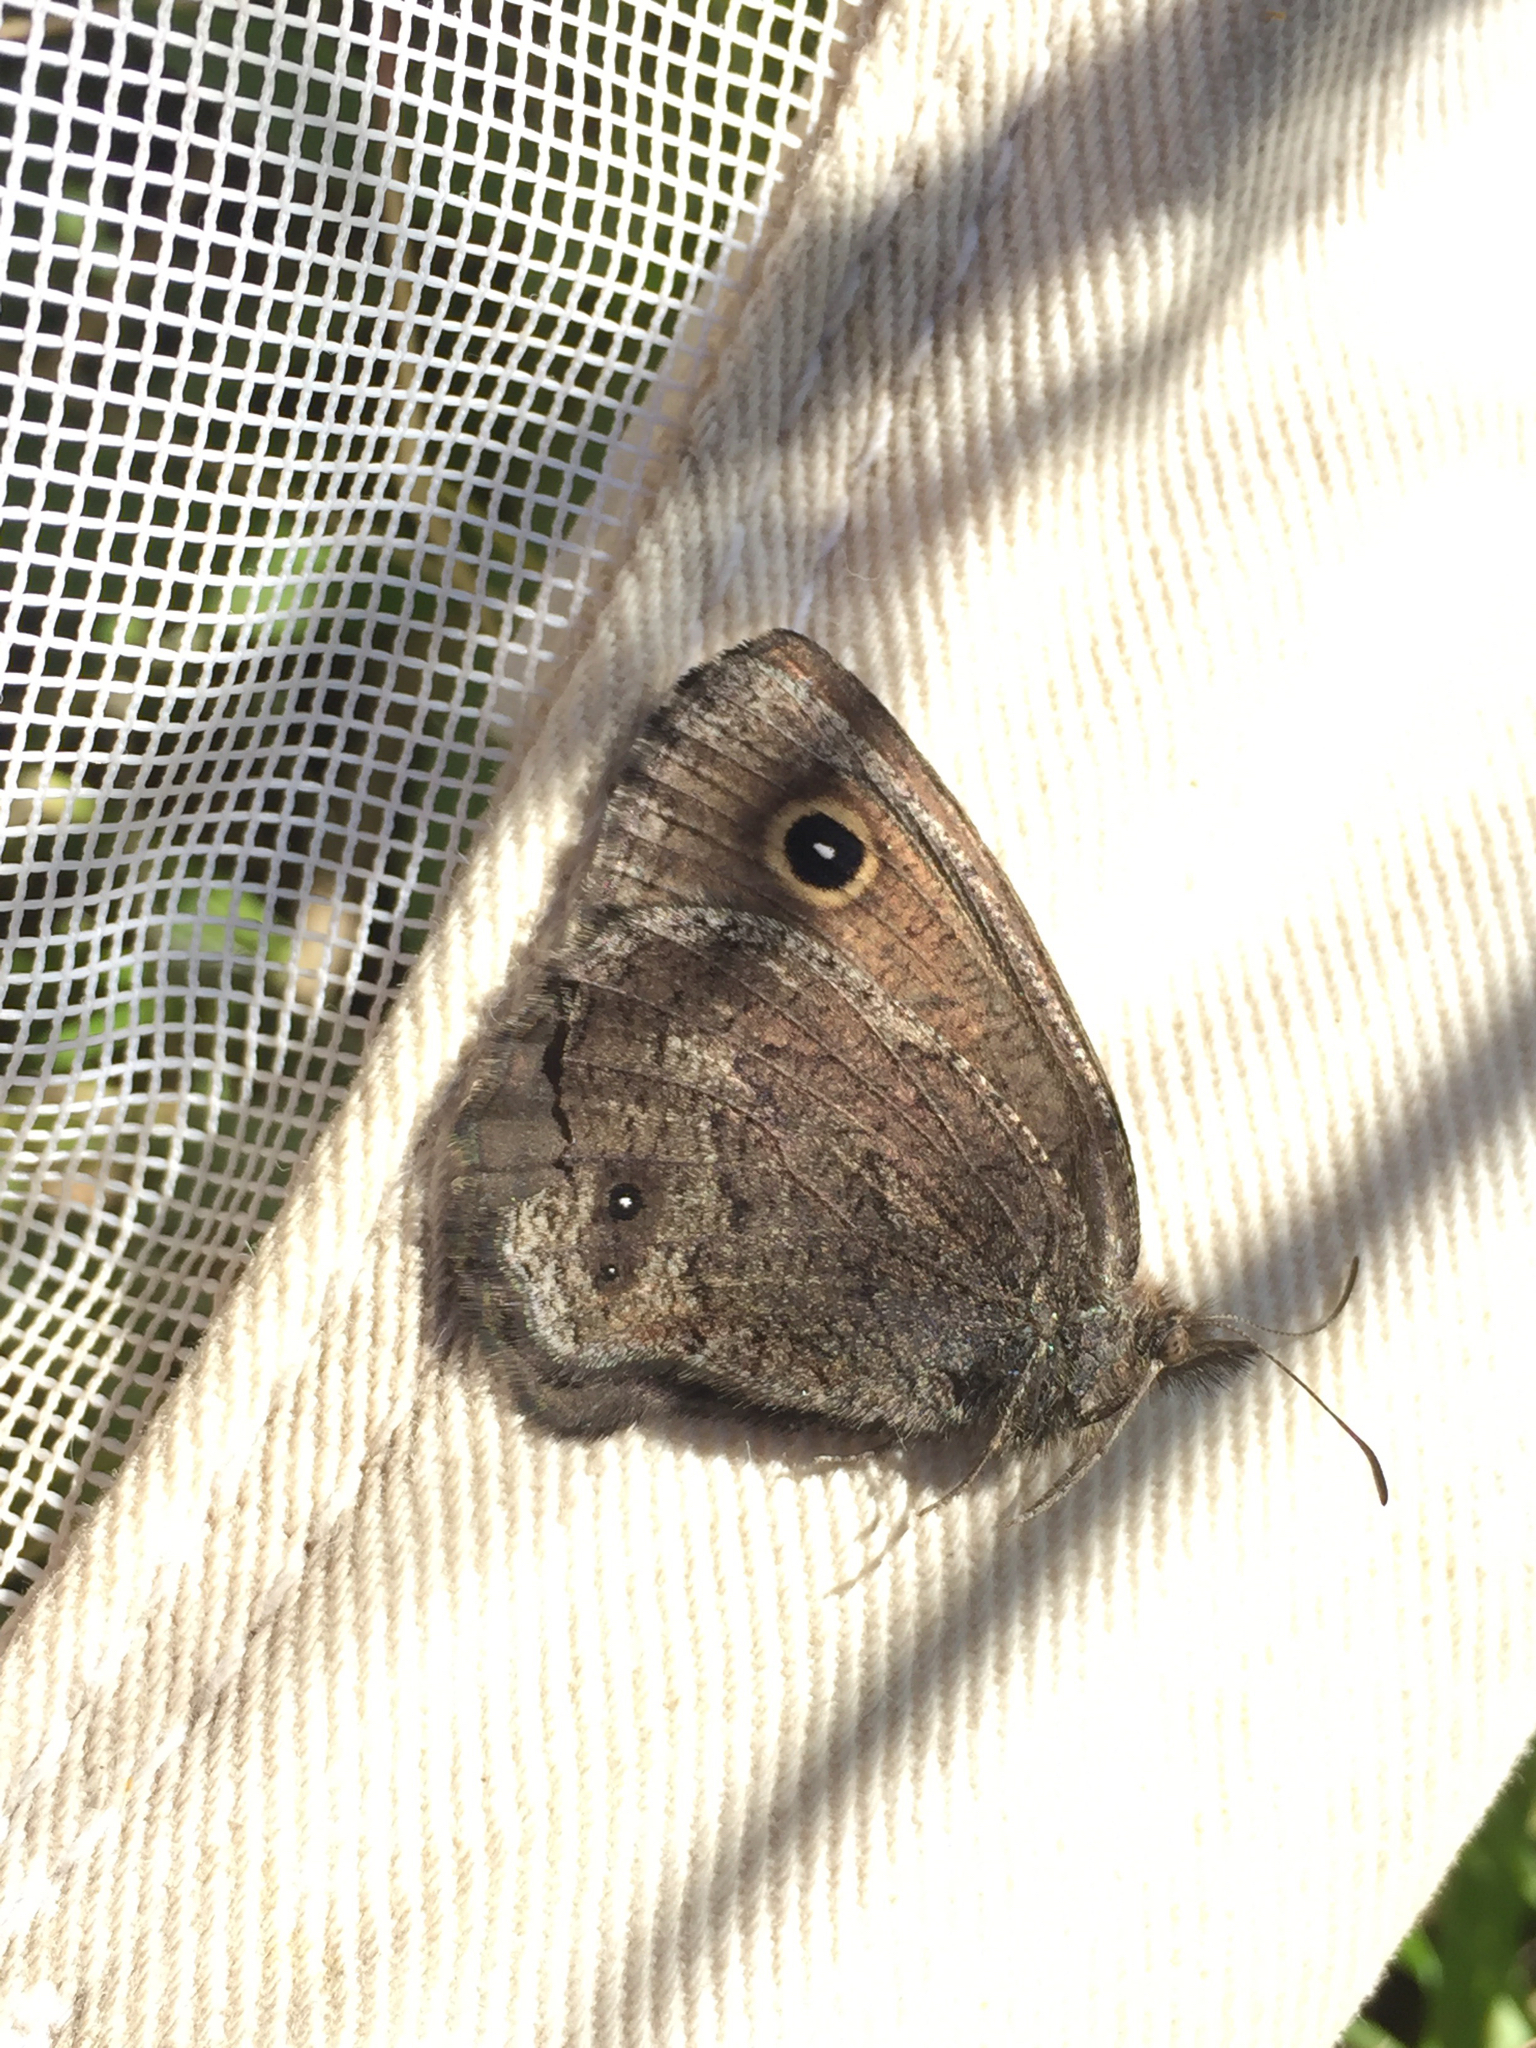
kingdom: Animalia
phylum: Arthropoda
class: Insecta
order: Lepidoptera
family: Nymphalidae
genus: Cercyonis
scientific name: Cercyonis oetus
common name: Small wood-nymph
